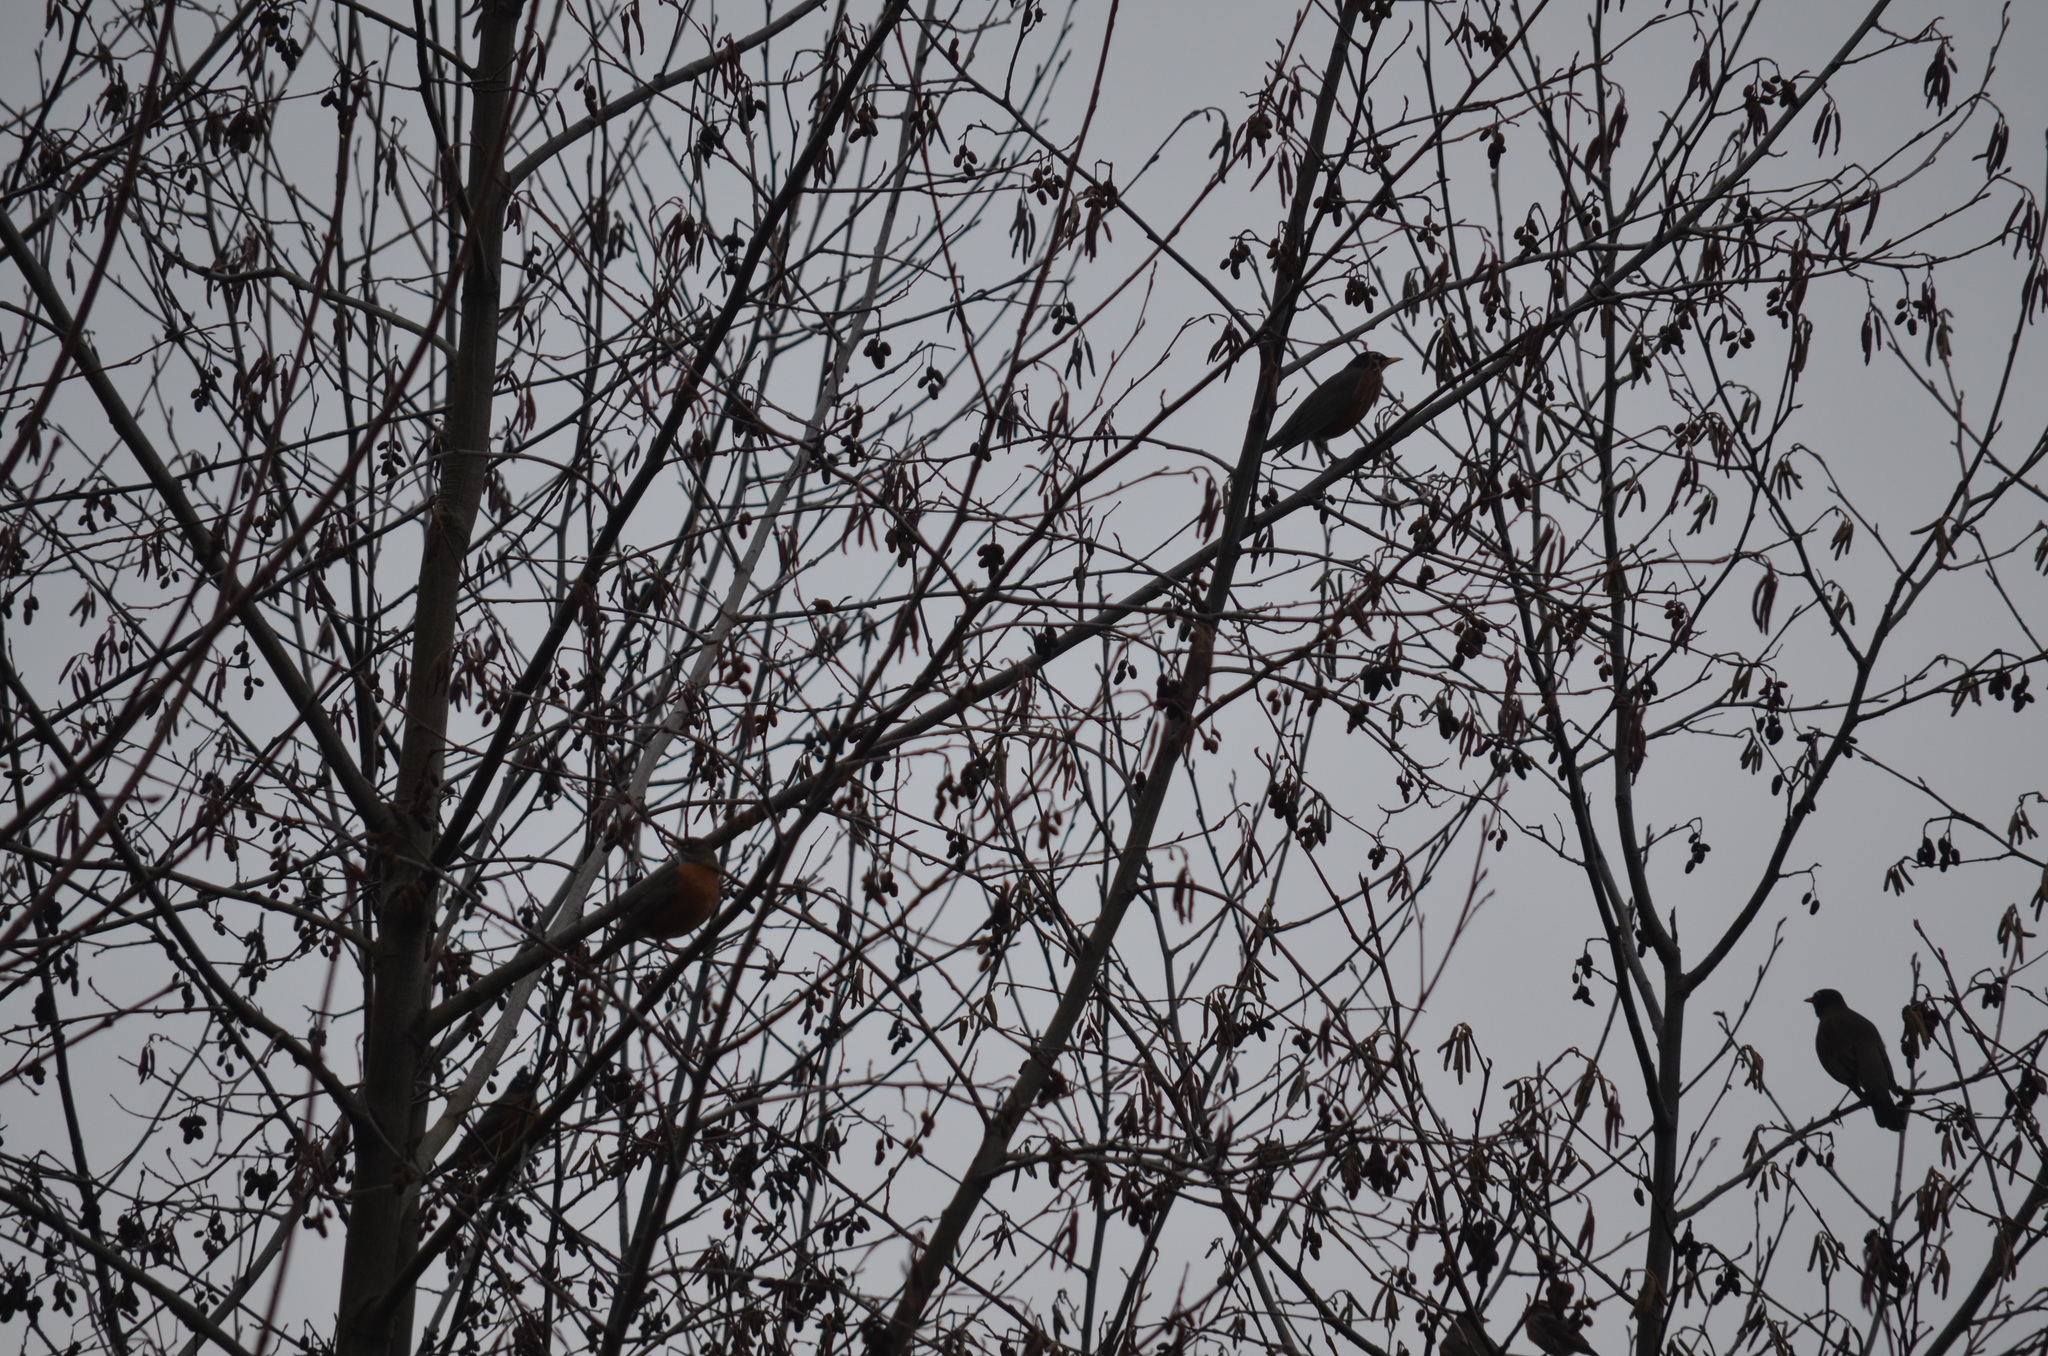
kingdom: Animalia
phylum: Chordata
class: Aves
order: Passeriformes
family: Turdidae
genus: Turdus
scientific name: Turdus migratorius
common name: American robin
